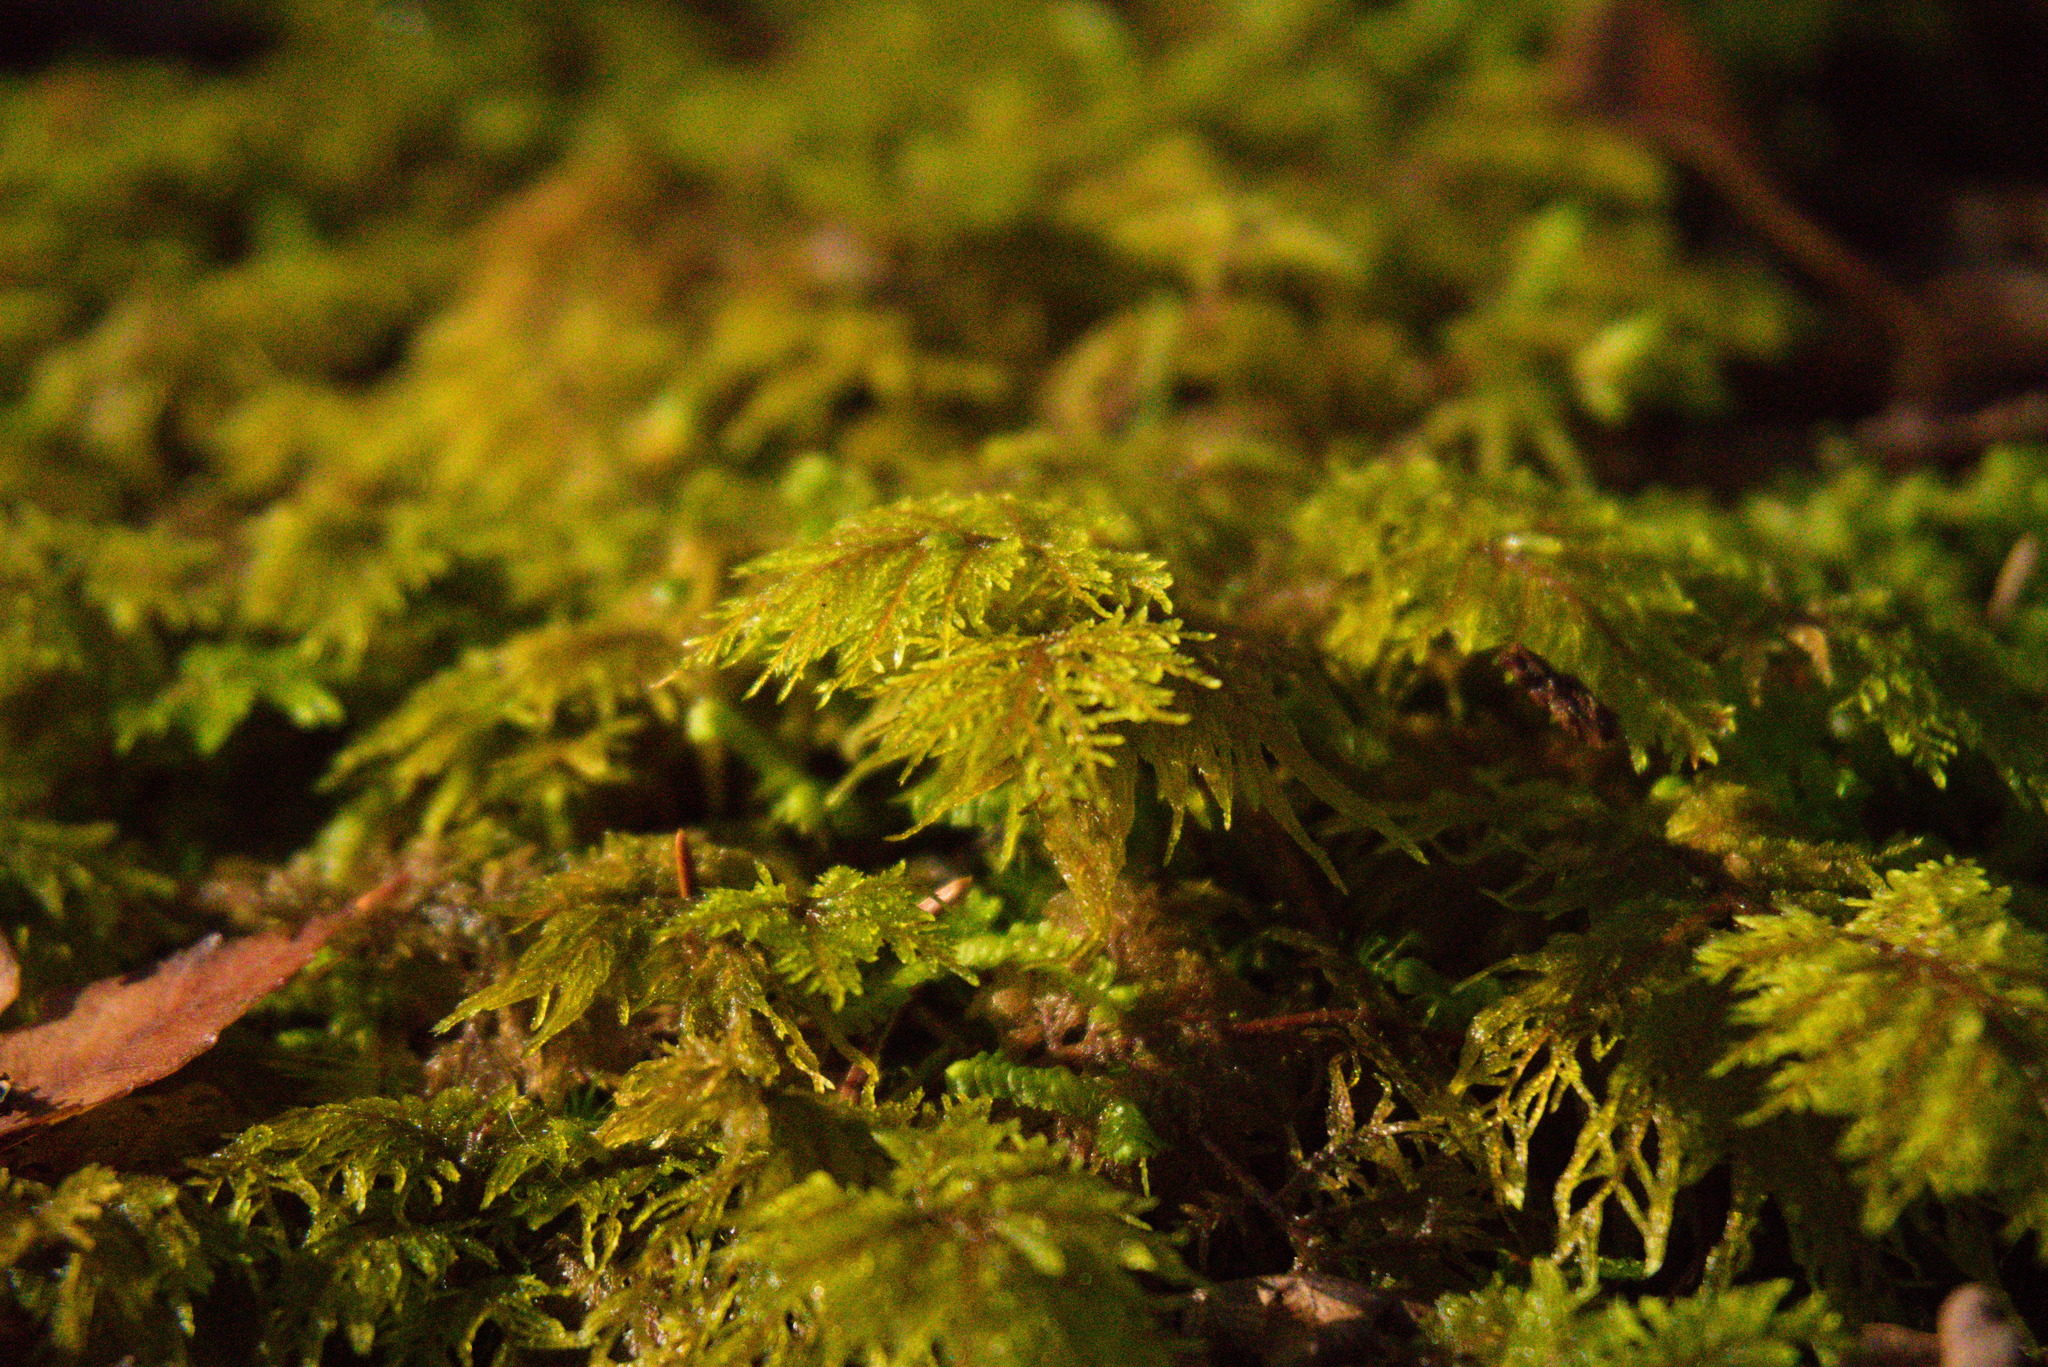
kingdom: Plantae
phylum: Bryophyta
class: Bryopsida
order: Hypnales
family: Hylocomiaceae
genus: Hylocomium
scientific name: Hylocomium splendens
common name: Stairstep moss
